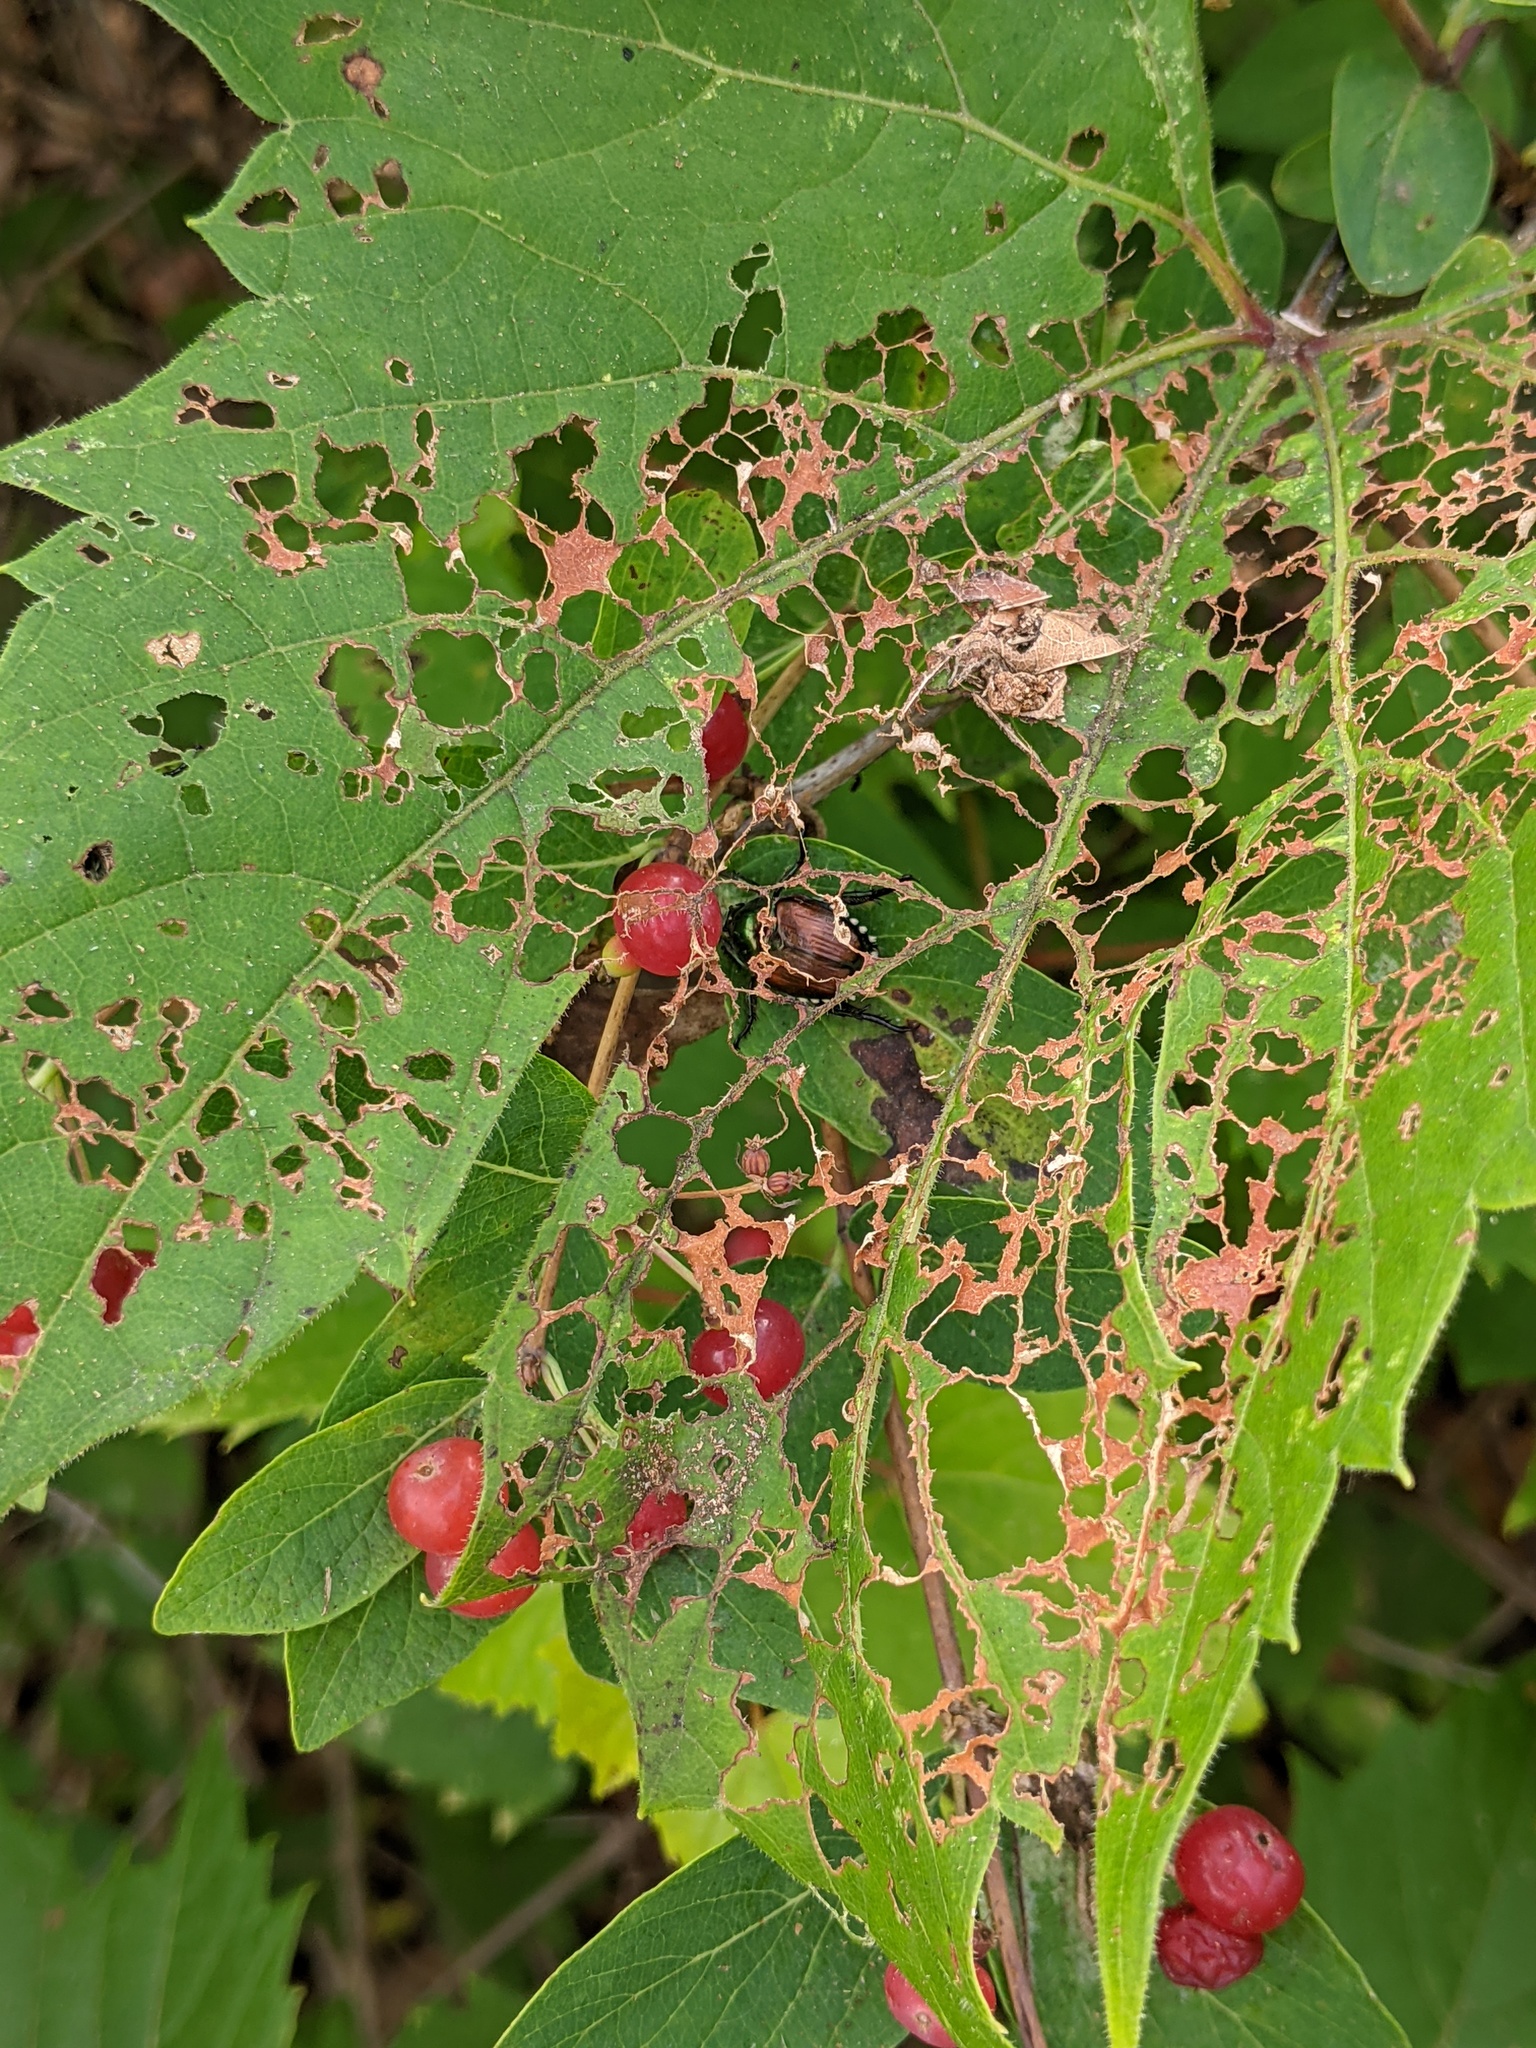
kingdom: Animalia
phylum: Arthropoda
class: Insecta
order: Coleoptera
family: Scarabaeidae
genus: Popillia
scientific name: Popillia japonica
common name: Japanese beetle
